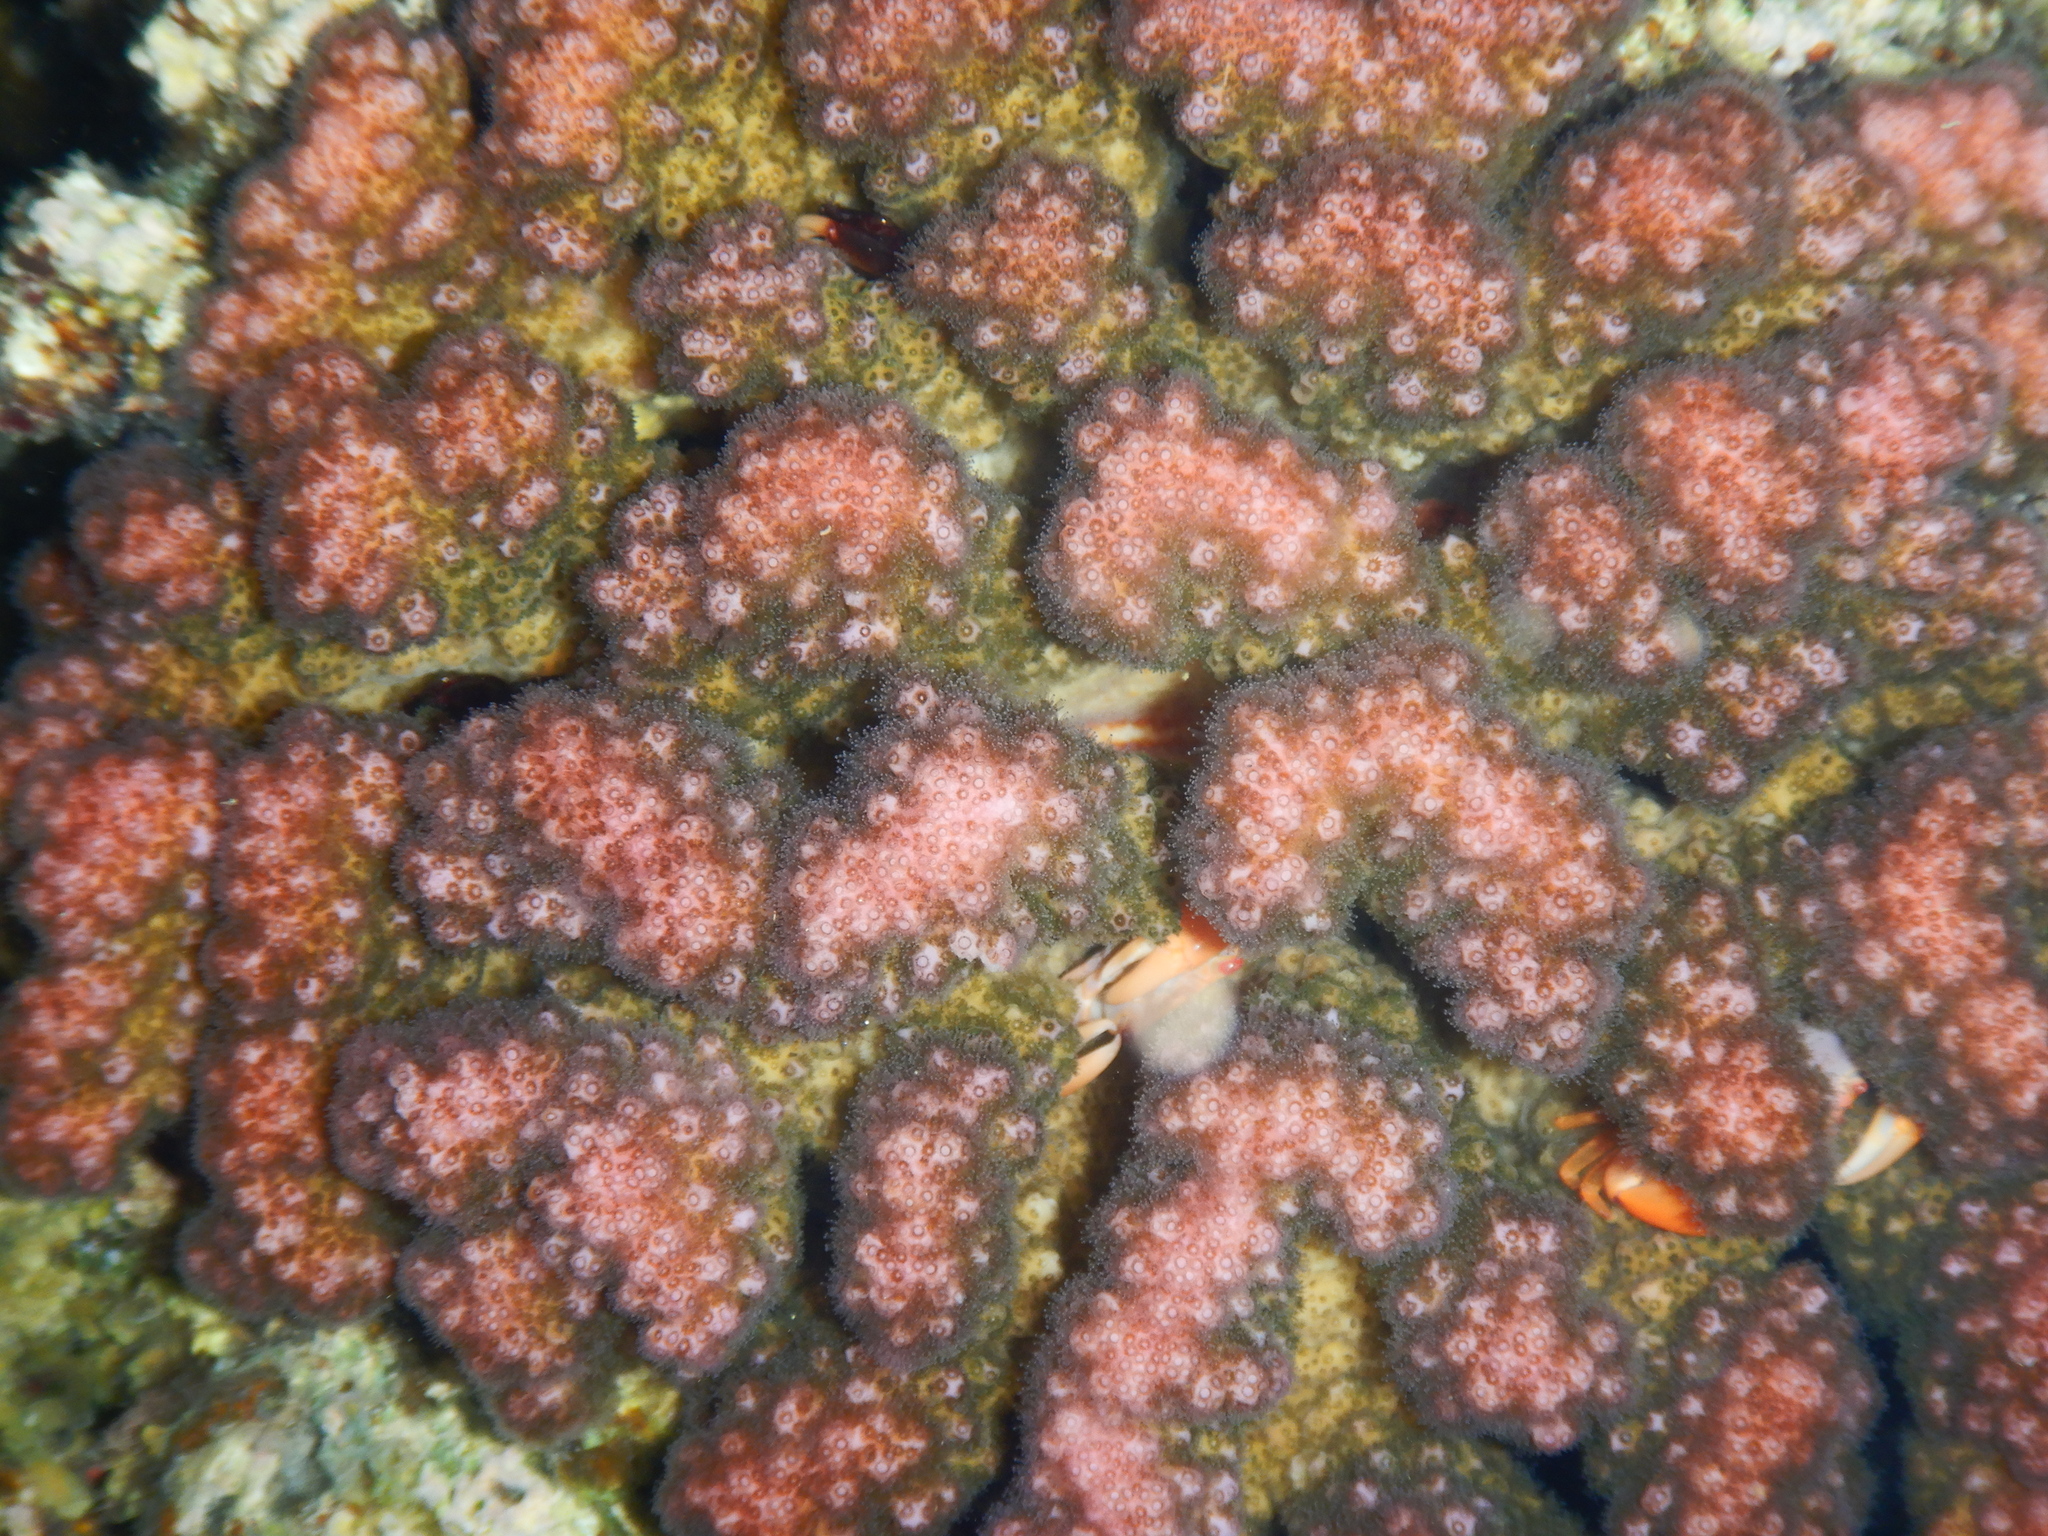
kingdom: Animalia
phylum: Cnidaria
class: Anthozoa
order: Scleractinia
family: Pocilloporidae
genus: Pocillopora
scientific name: Pocillopora verrucosa
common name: Cauliflower coral
